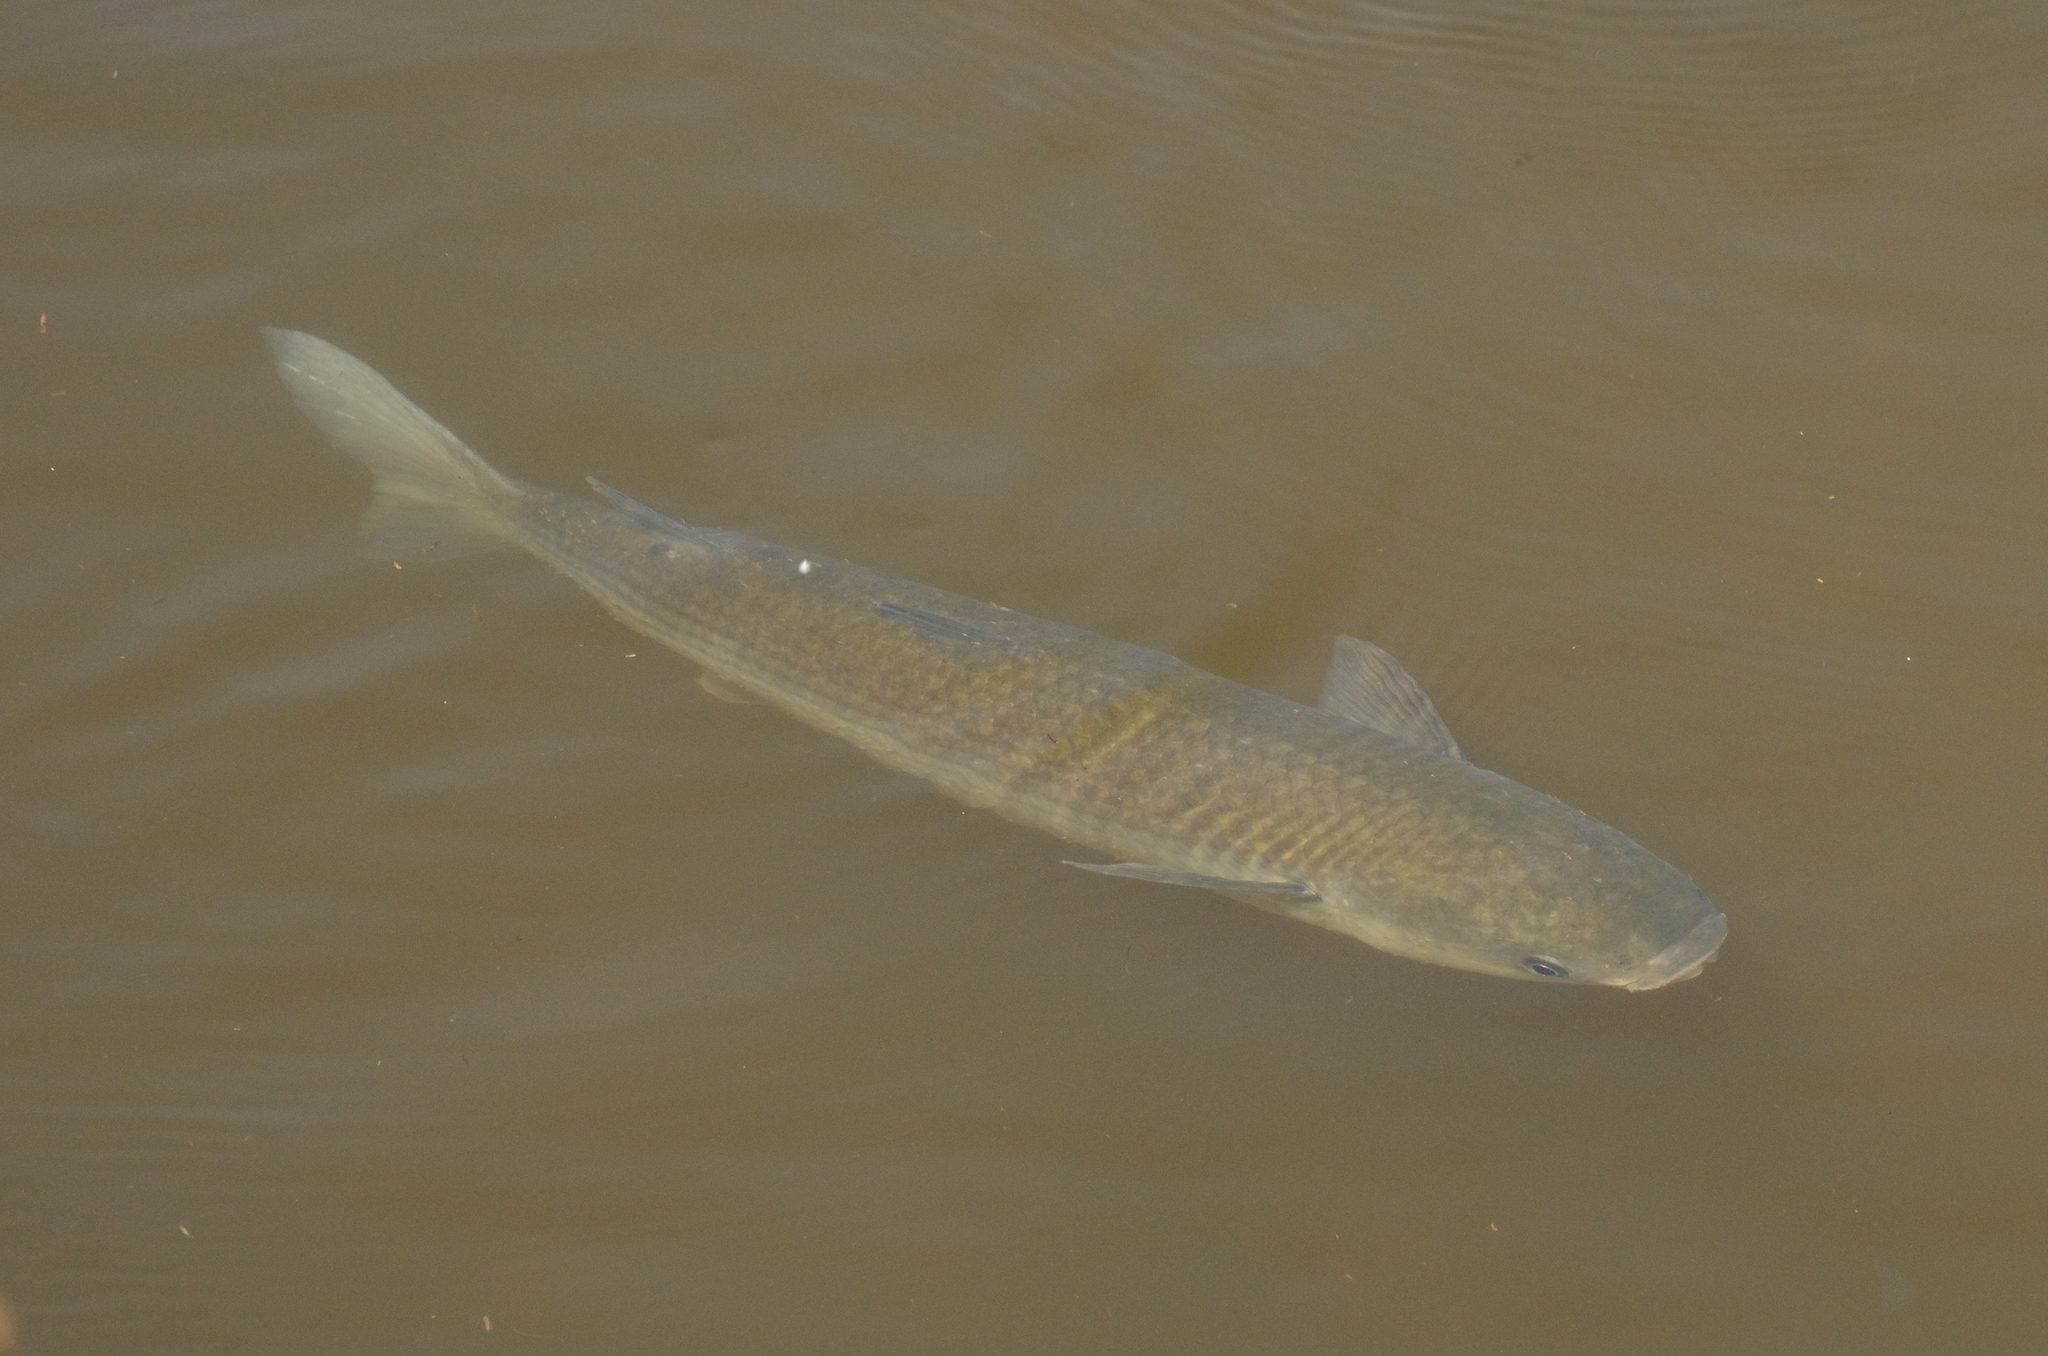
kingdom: Animalia
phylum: Chordata
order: Mugiliformes
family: Mugilidae
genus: Chelon
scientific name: Chelon labrosus
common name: Thick-lipped mullet
